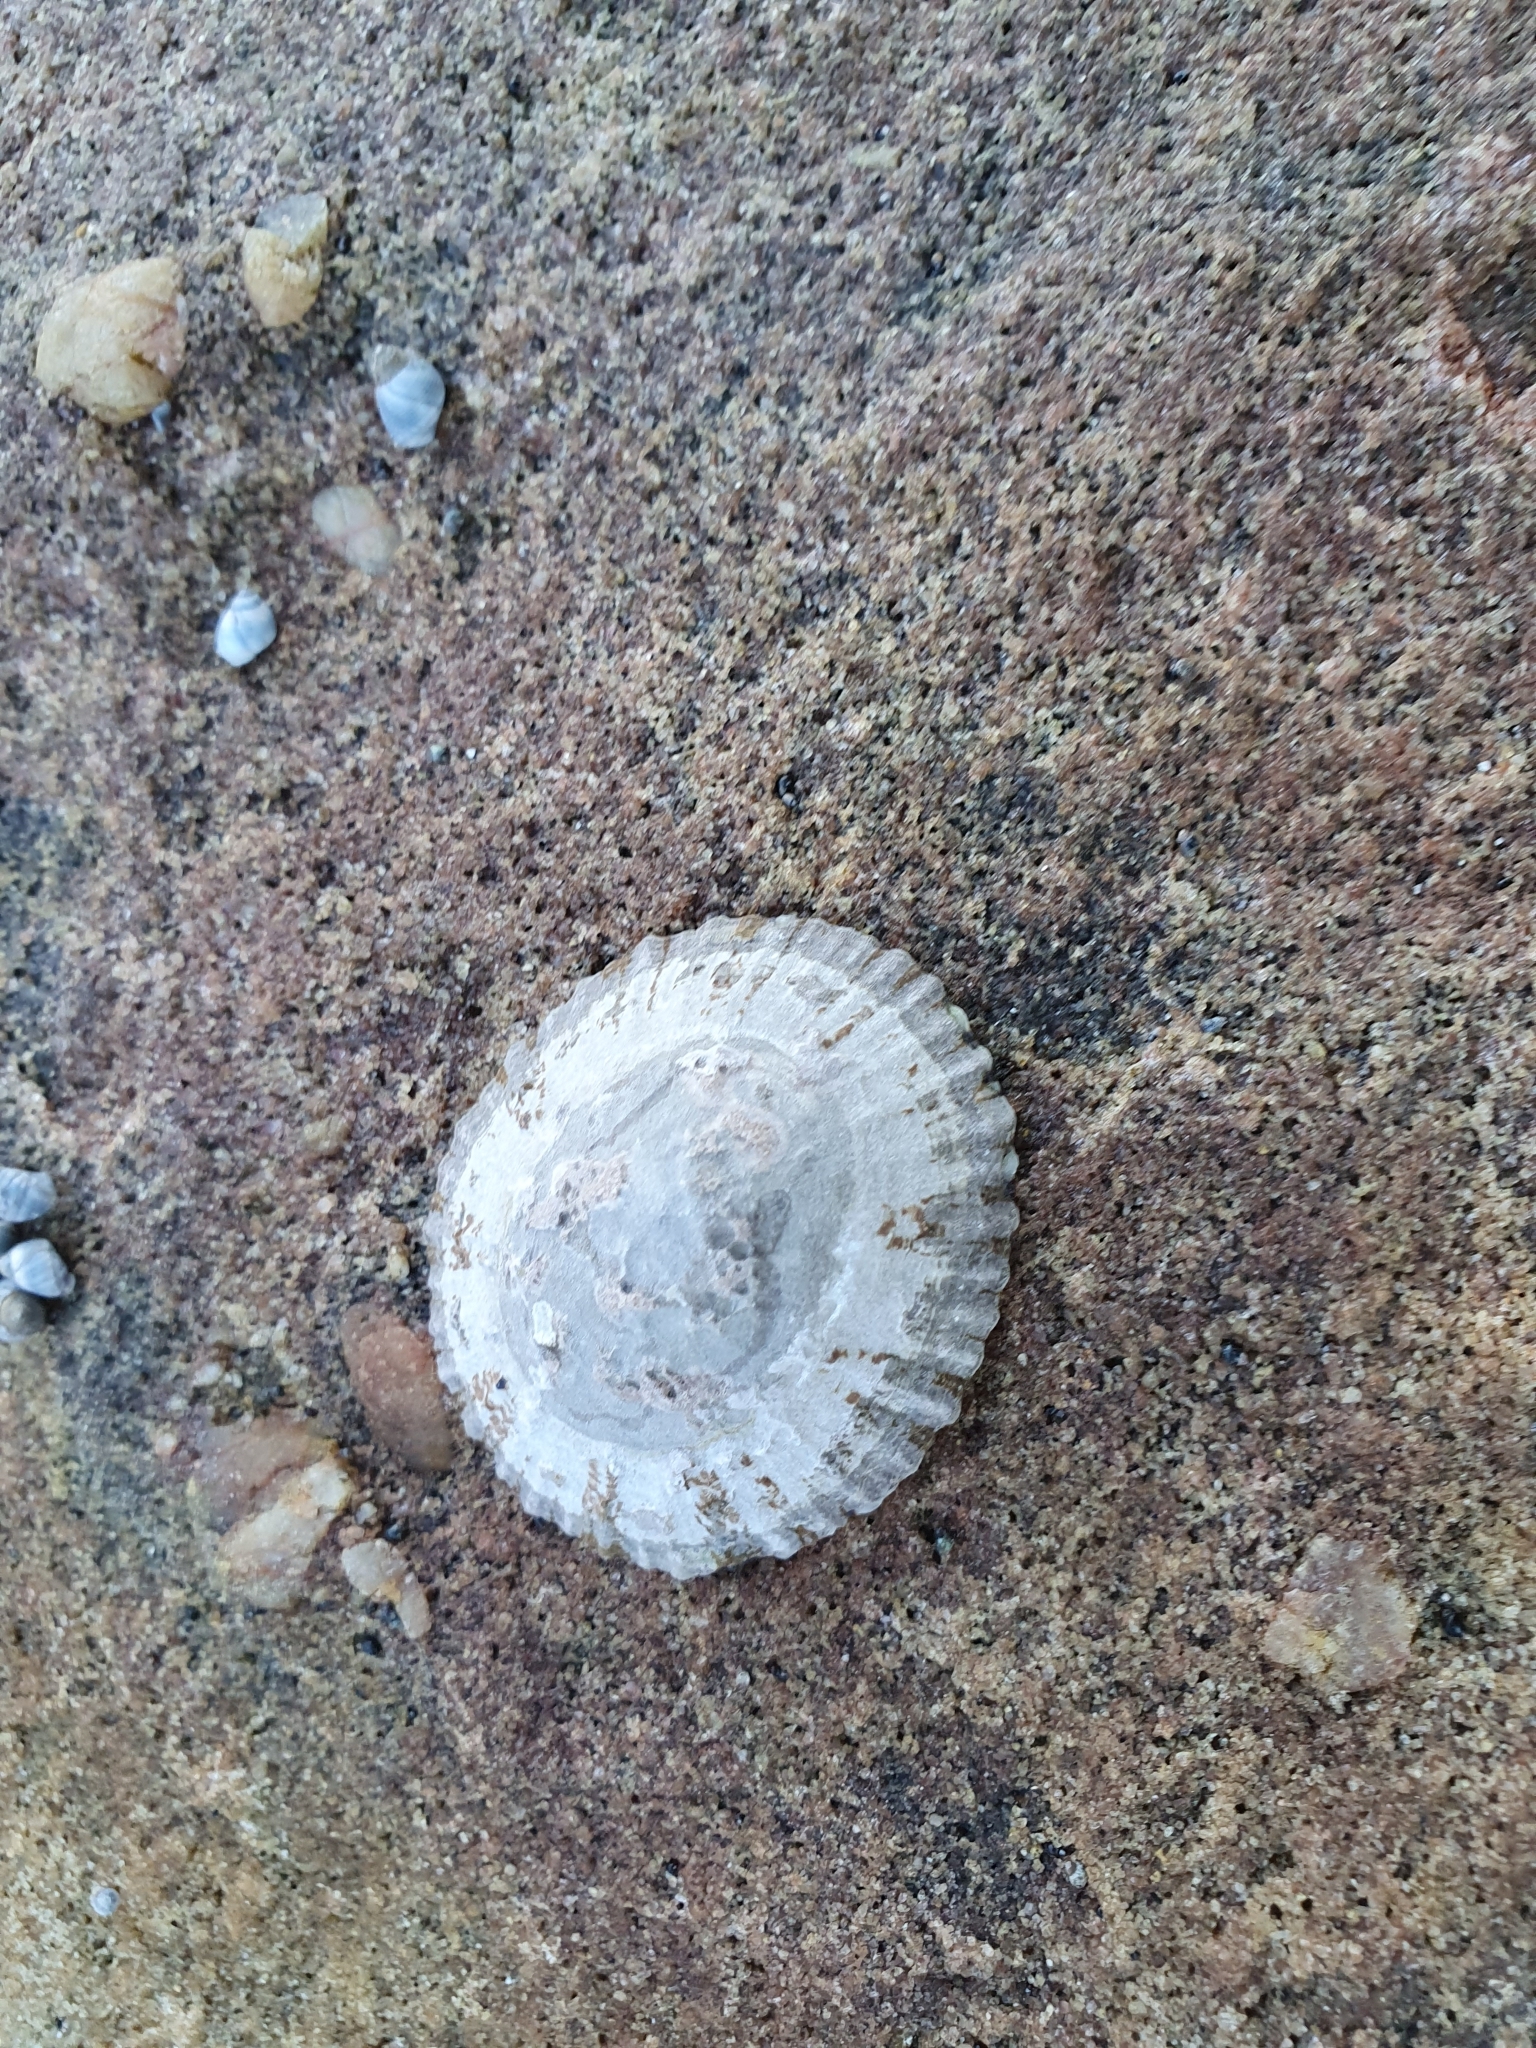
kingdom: Animalia
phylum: Mollusca
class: Gastropoda
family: Nacellidae
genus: Cellana
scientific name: Cellana tramoserica
